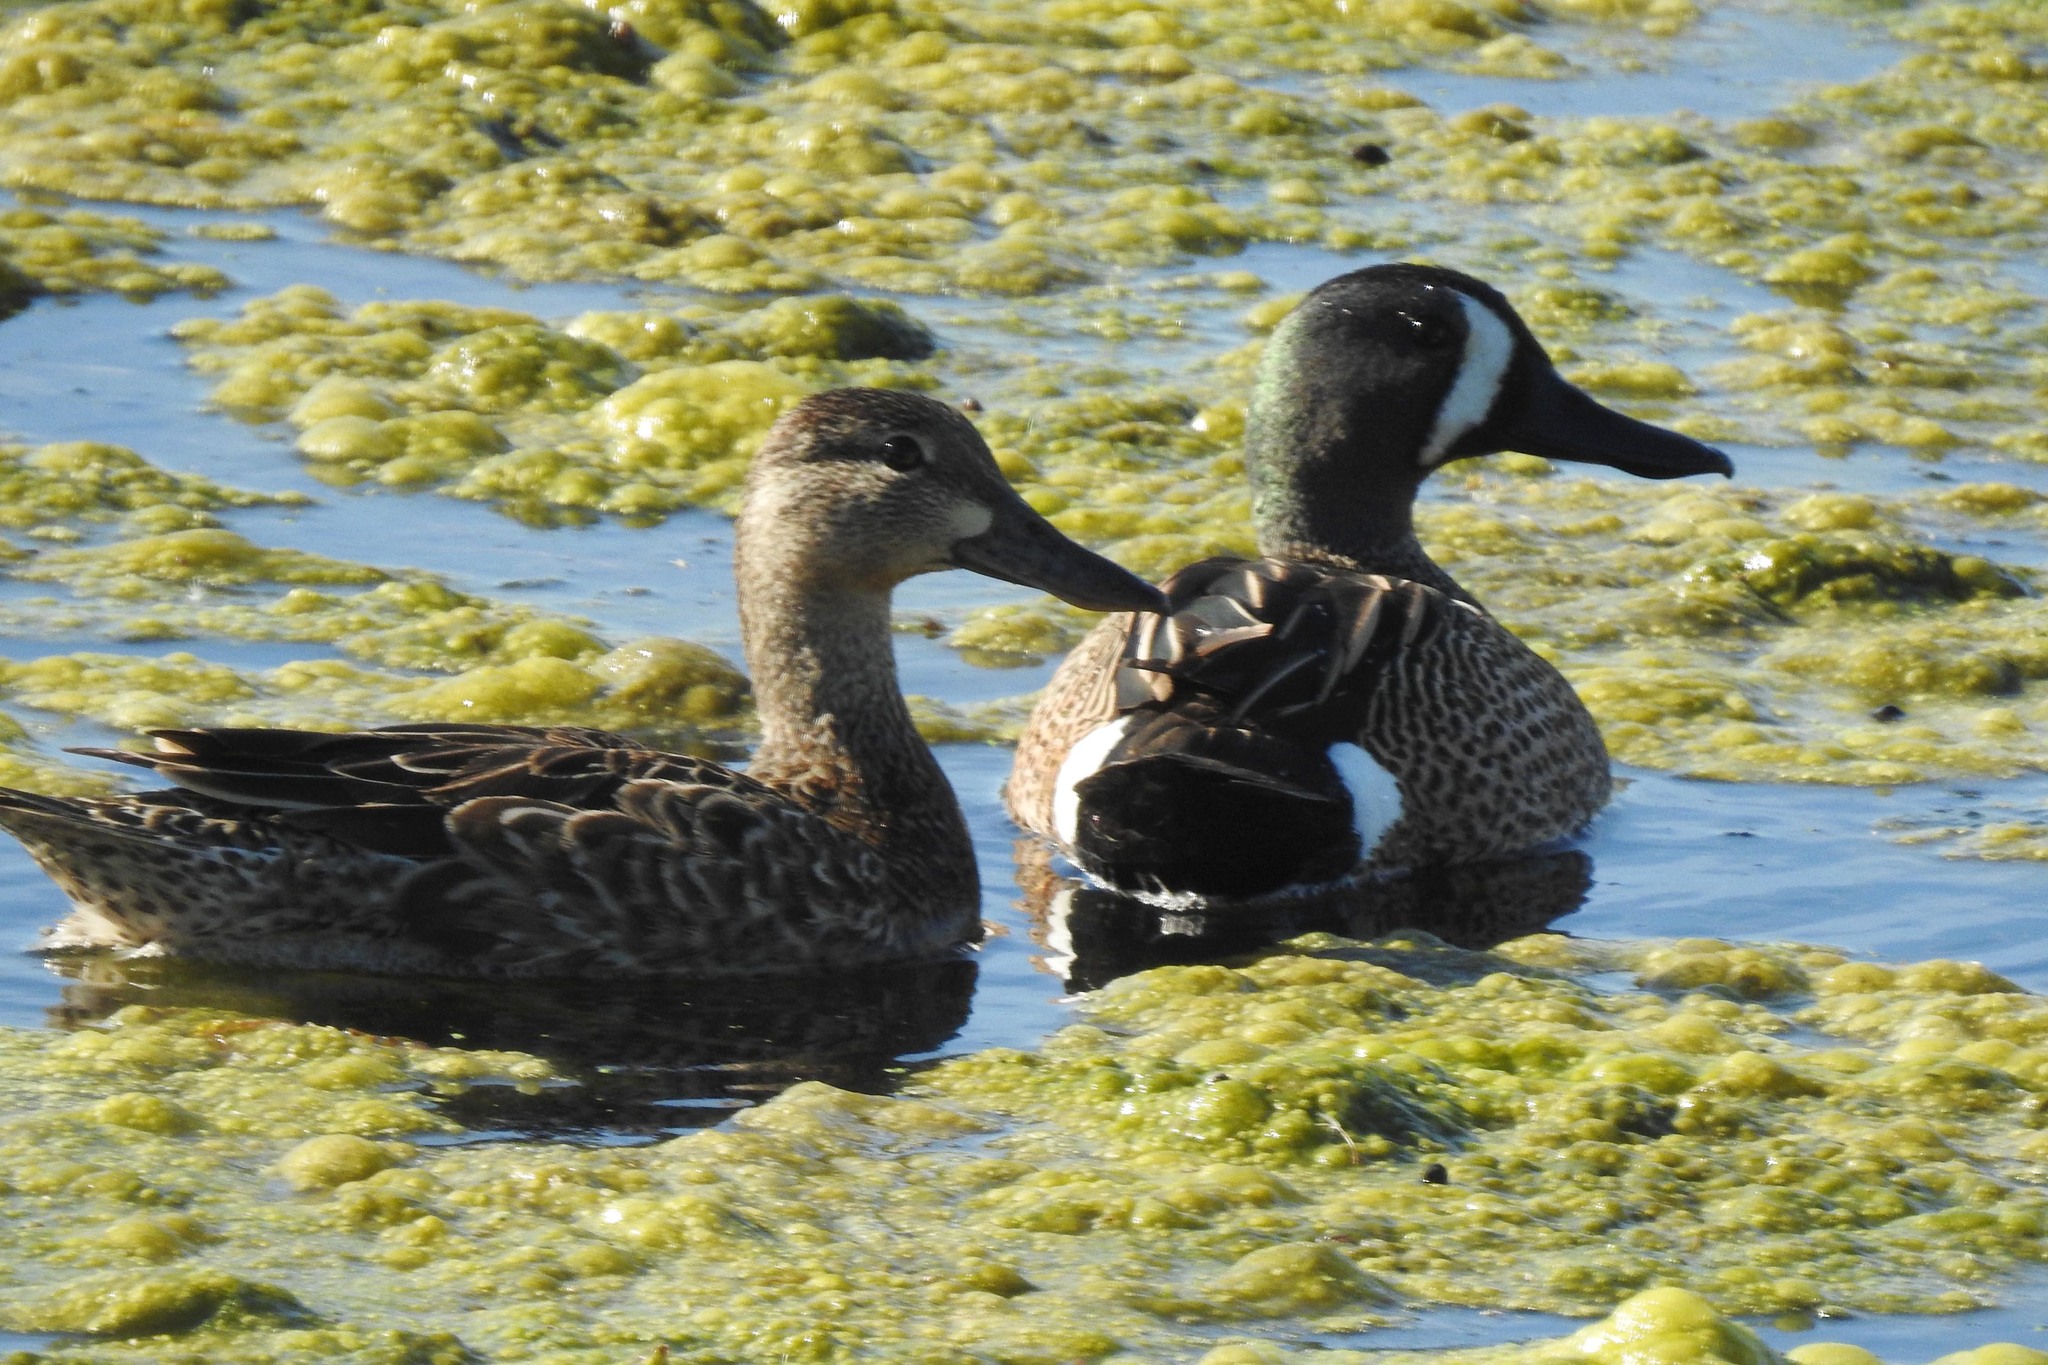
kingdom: Animalia
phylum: Chordata
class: Aves
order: Anseriformes
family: Anatidae
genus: Spatula
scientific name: Spatula discors
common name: Blue-winged teal
